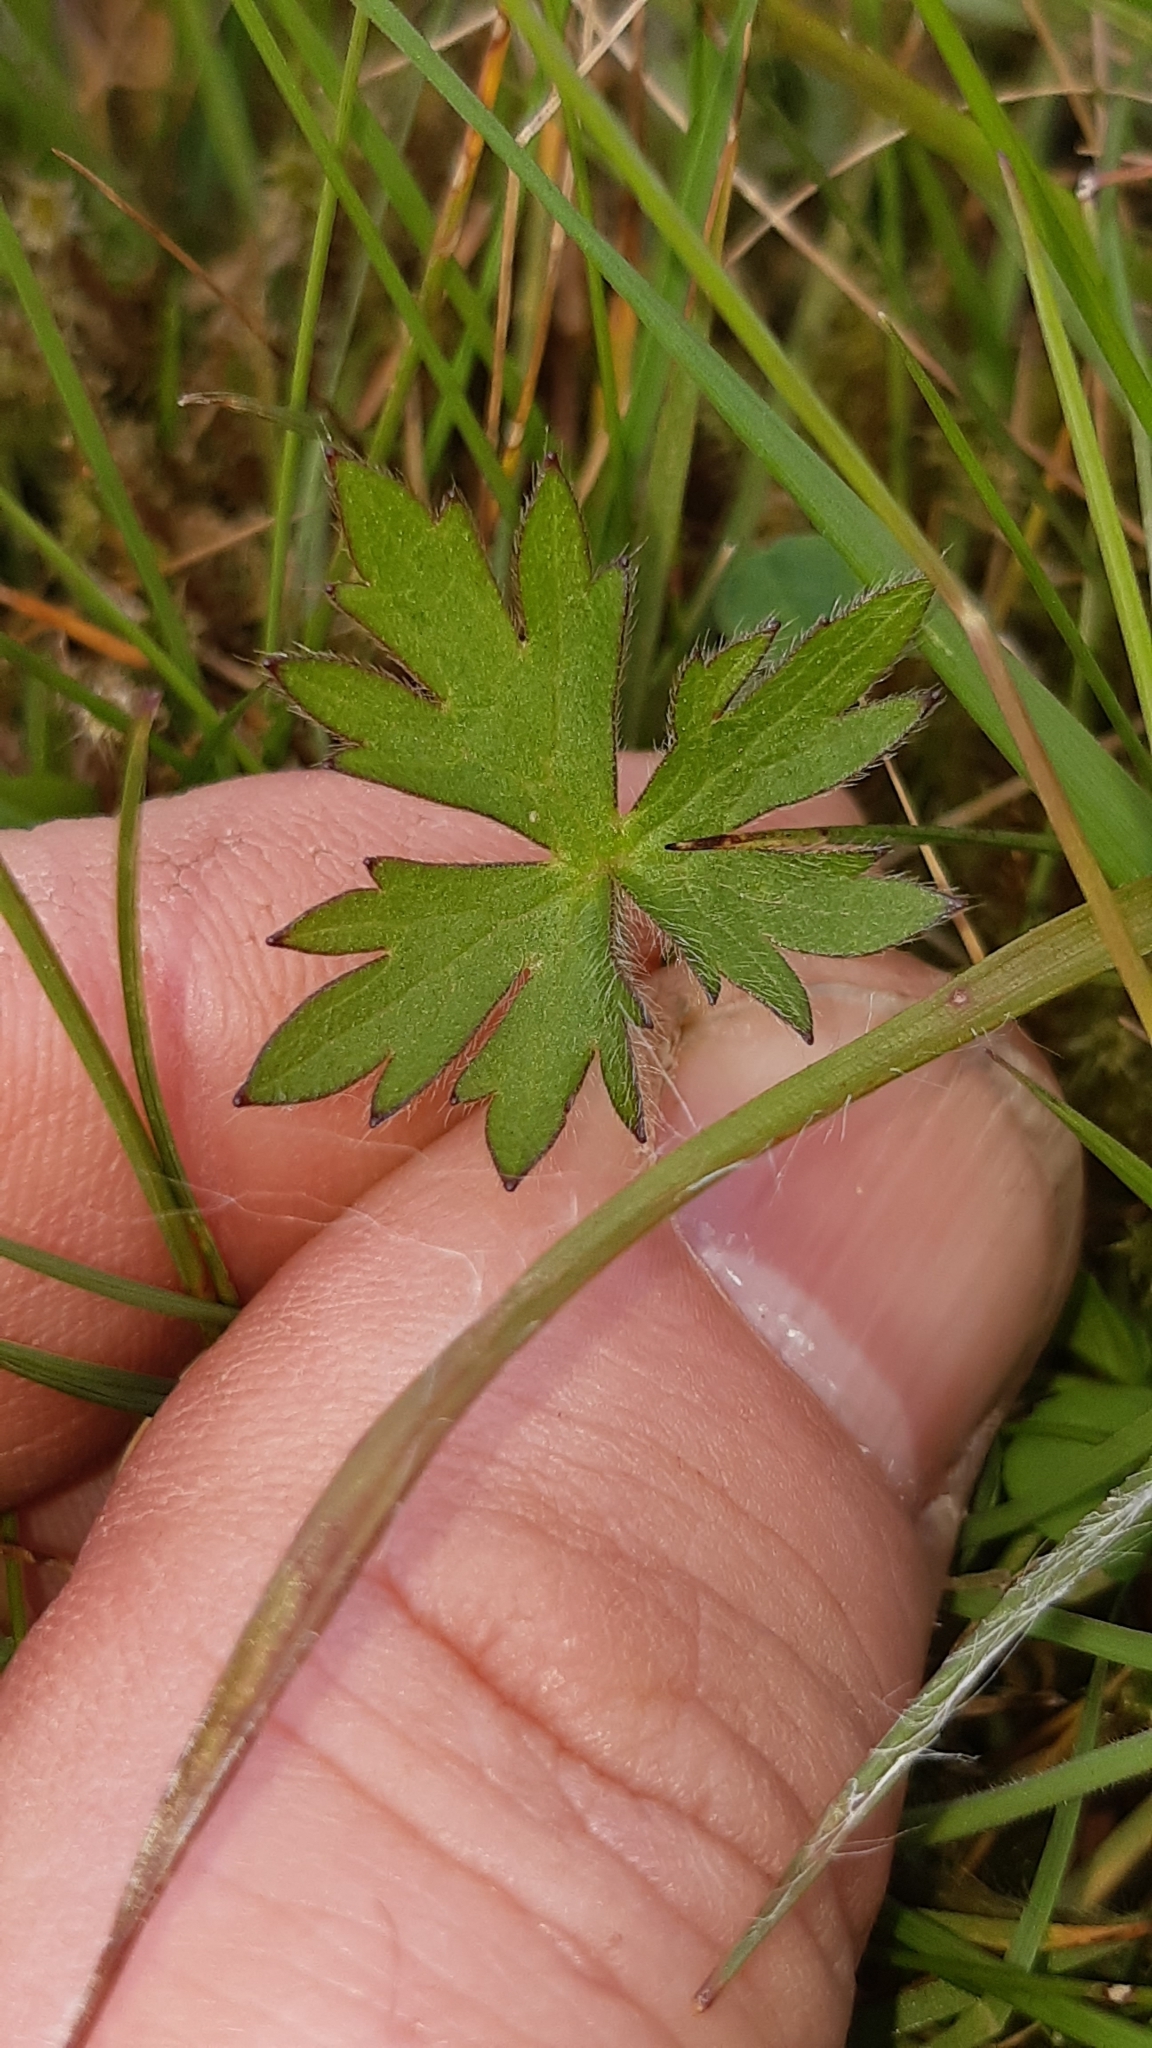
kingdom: Plantae
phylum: Tracheophyta
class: Magnoliopsida
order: Ranunculales
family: Ranunculaceae
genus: Ranunculus
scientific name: Ranunculus acris
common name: Meadow buttercup
